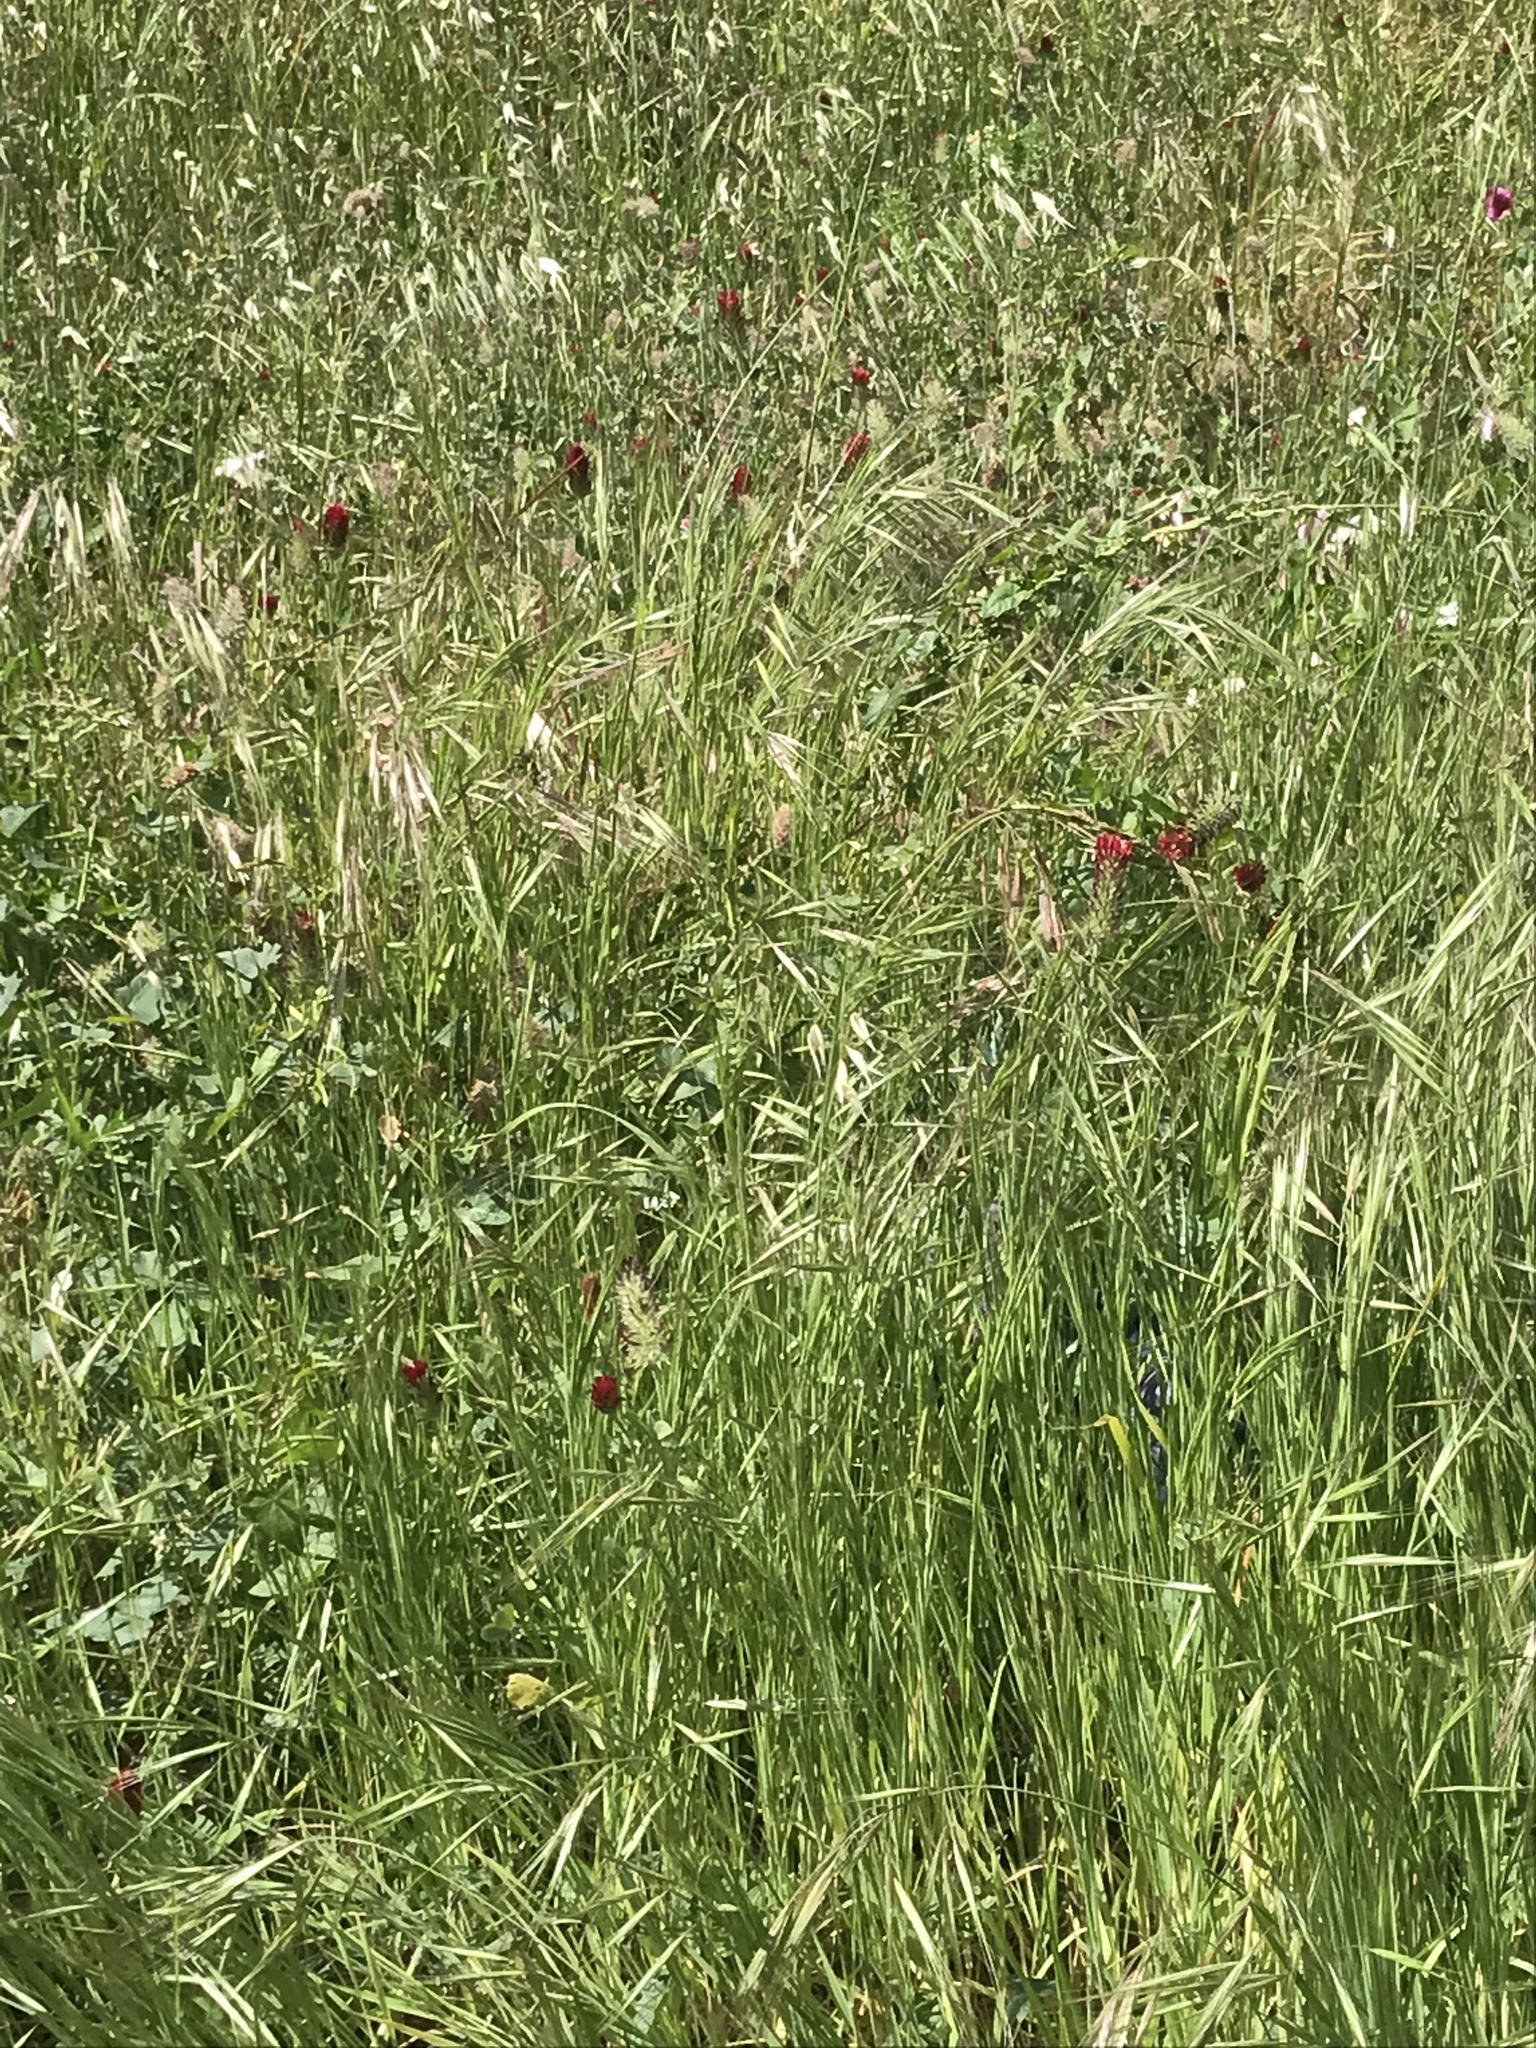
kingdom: Plantae
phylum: Tracheophyta
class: Magnoliopsida
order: Fabales
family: Fabaceae
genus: Trifolium
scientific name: Trifolium incarnatum
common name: Crimson clover
